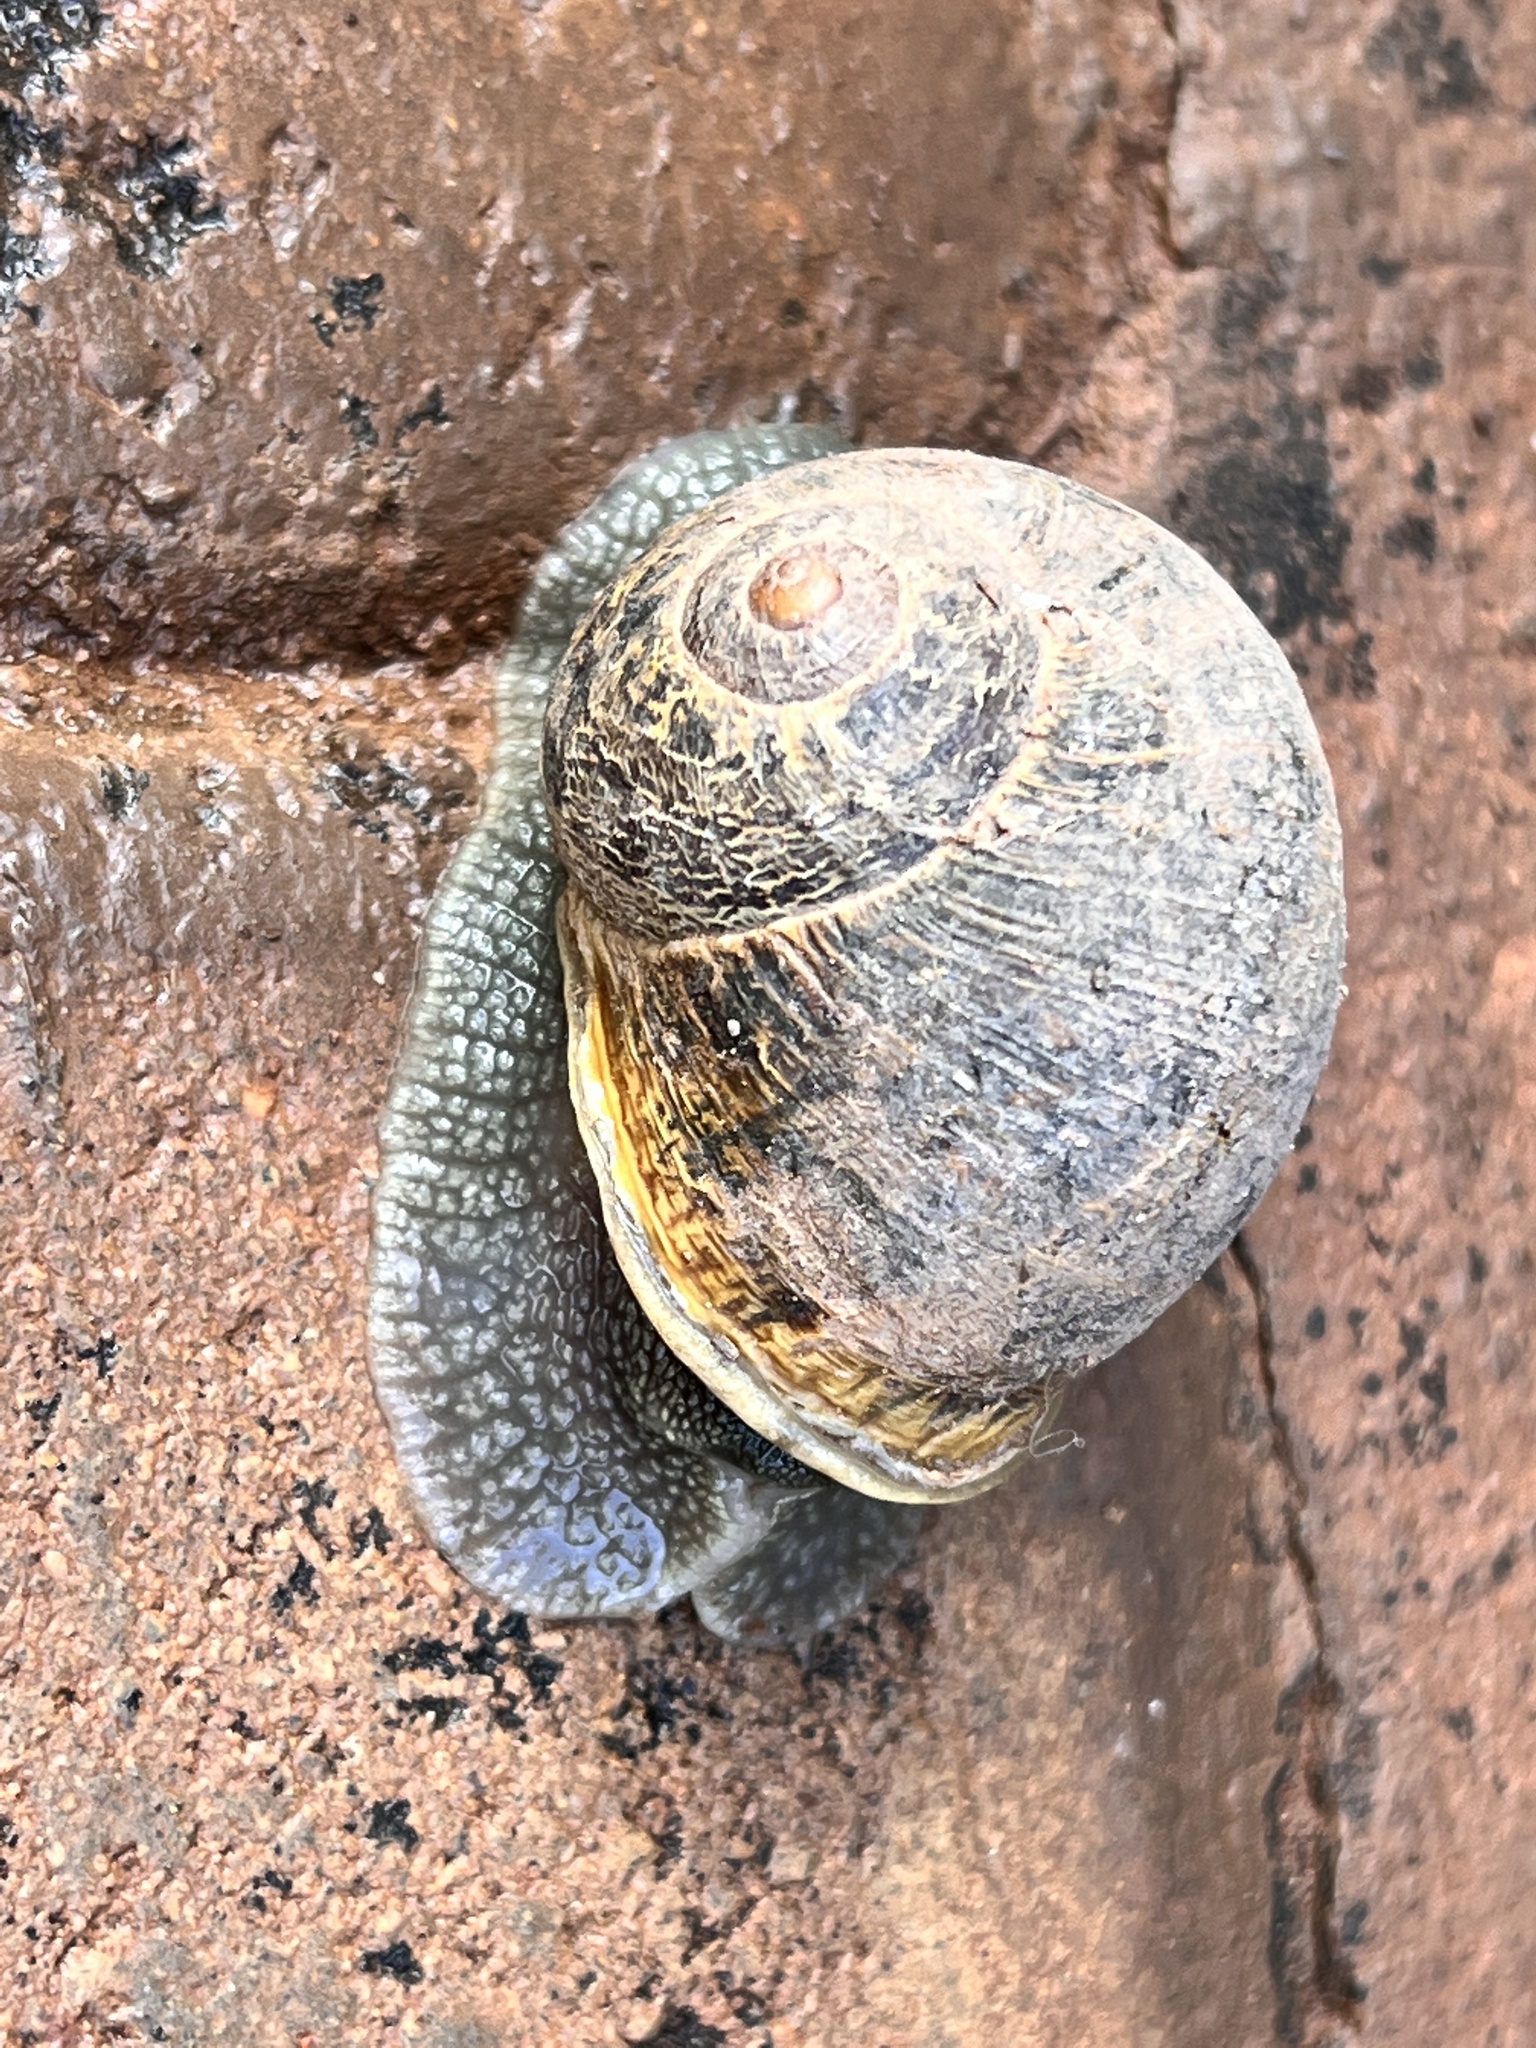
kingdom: Animalia
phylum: Mollusca
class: Gastropoda
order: Stylommatophora
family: Helicidae
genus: Cornu
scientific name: Cornu aspersum
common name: Brown garden snail
